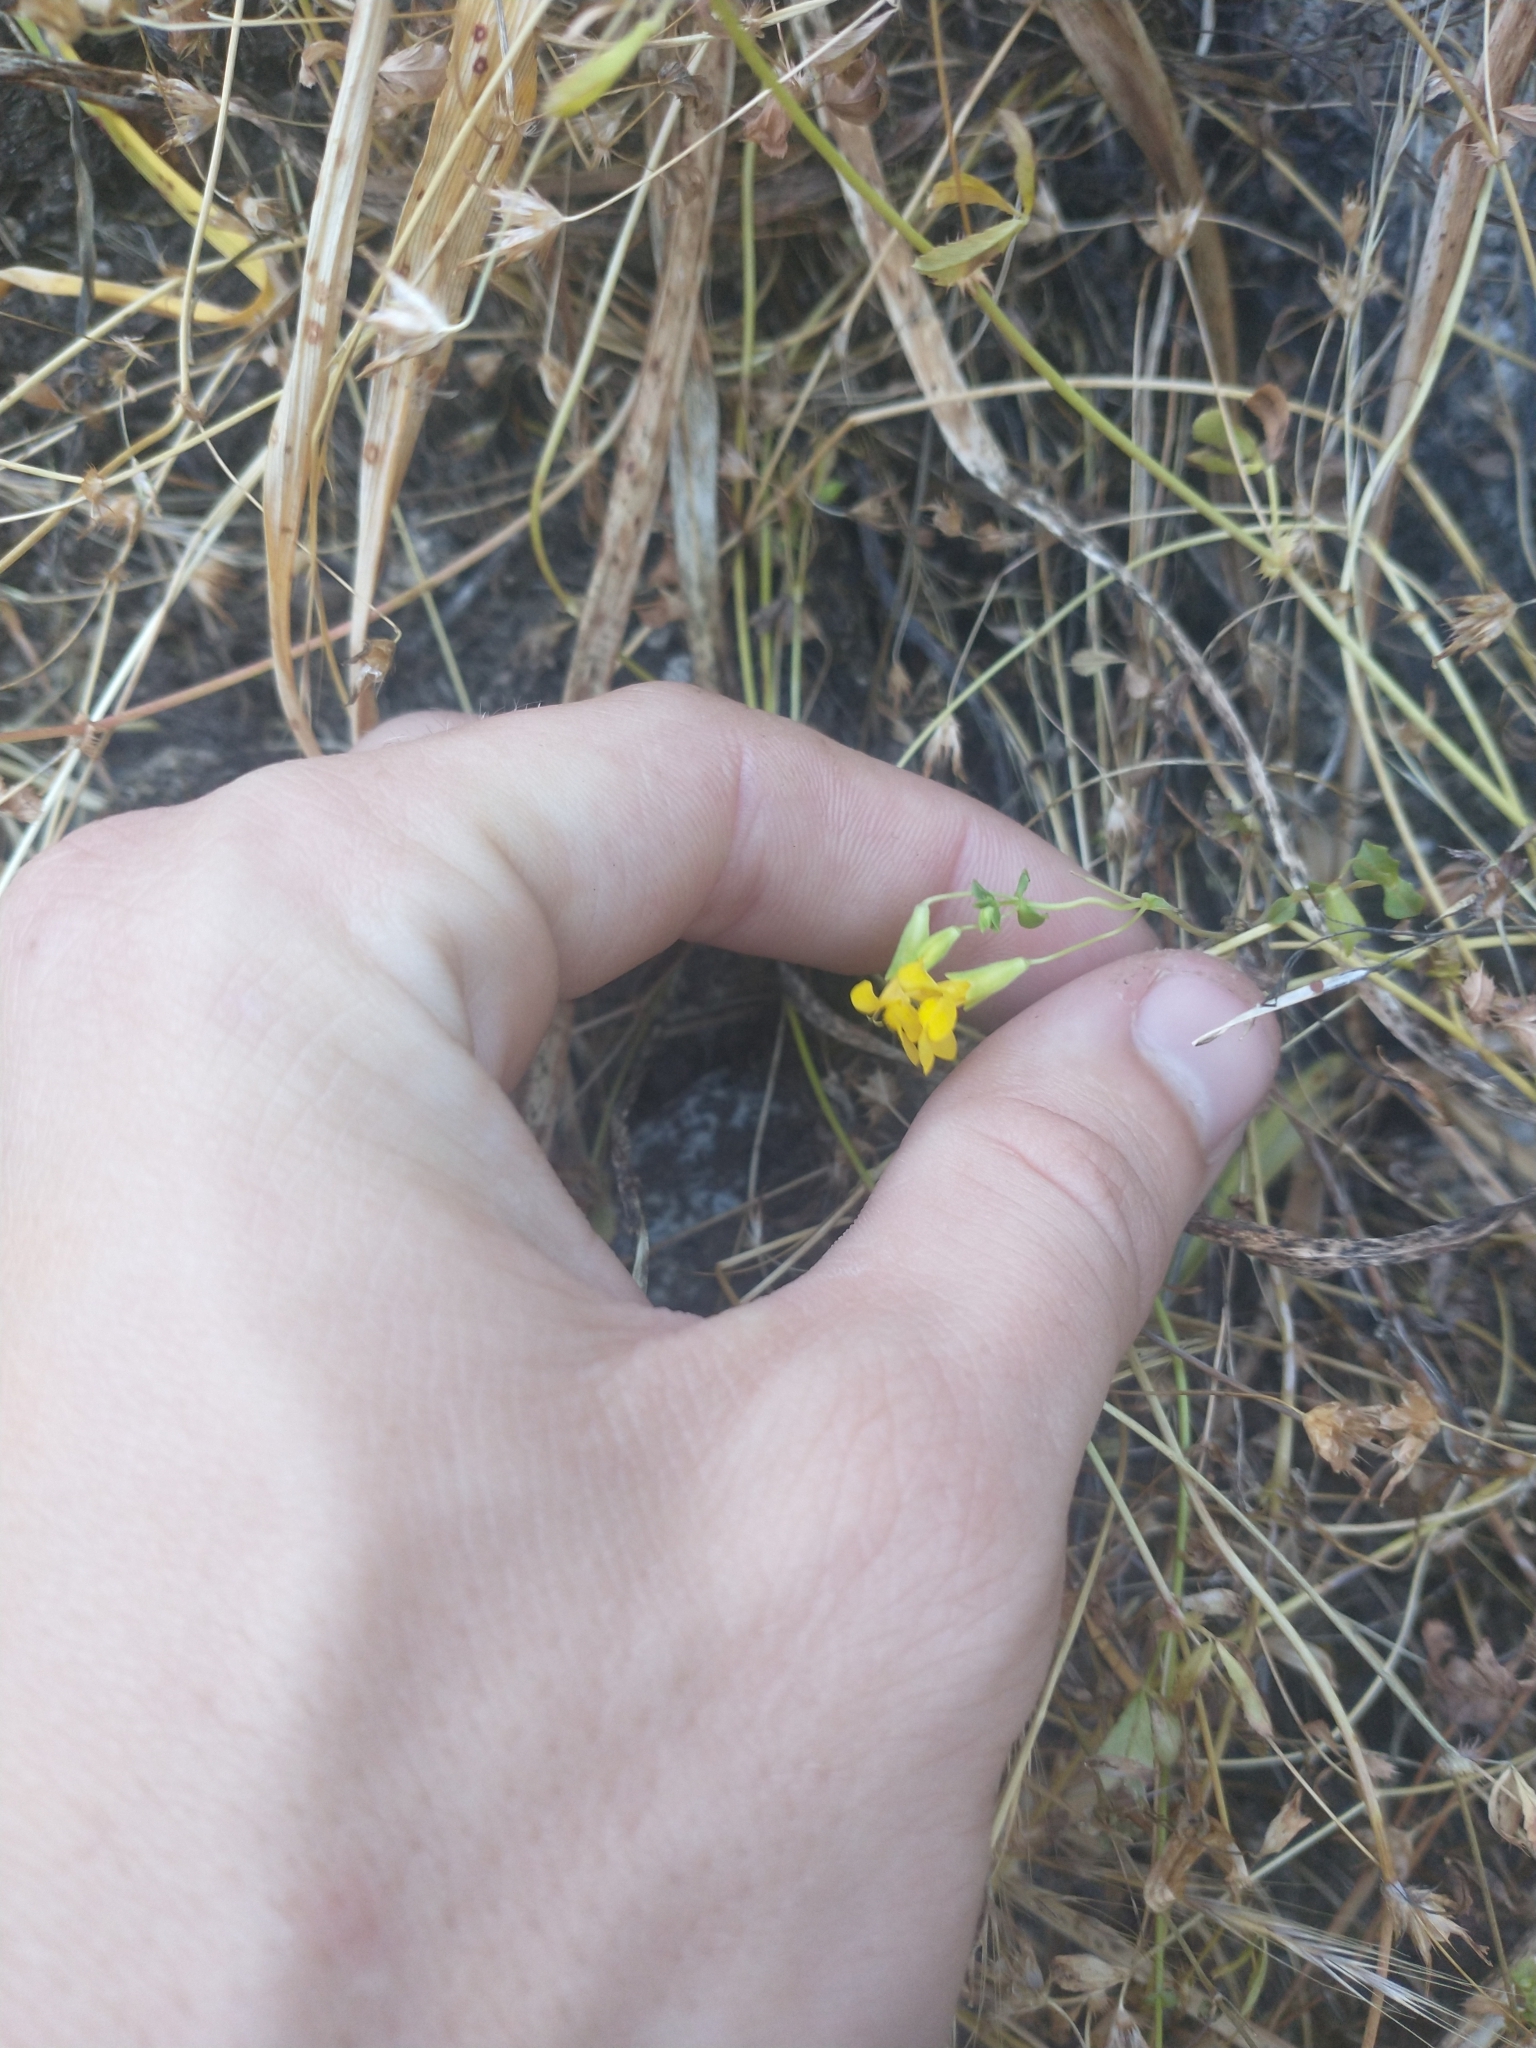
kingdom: Plantae
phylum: Tracheophyta
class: Magnoliopsida
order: Lamiales
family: Phrymaceae
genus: Erythranthe
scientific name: Erythranthe microphylla
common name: Bentham's monkeyflower
